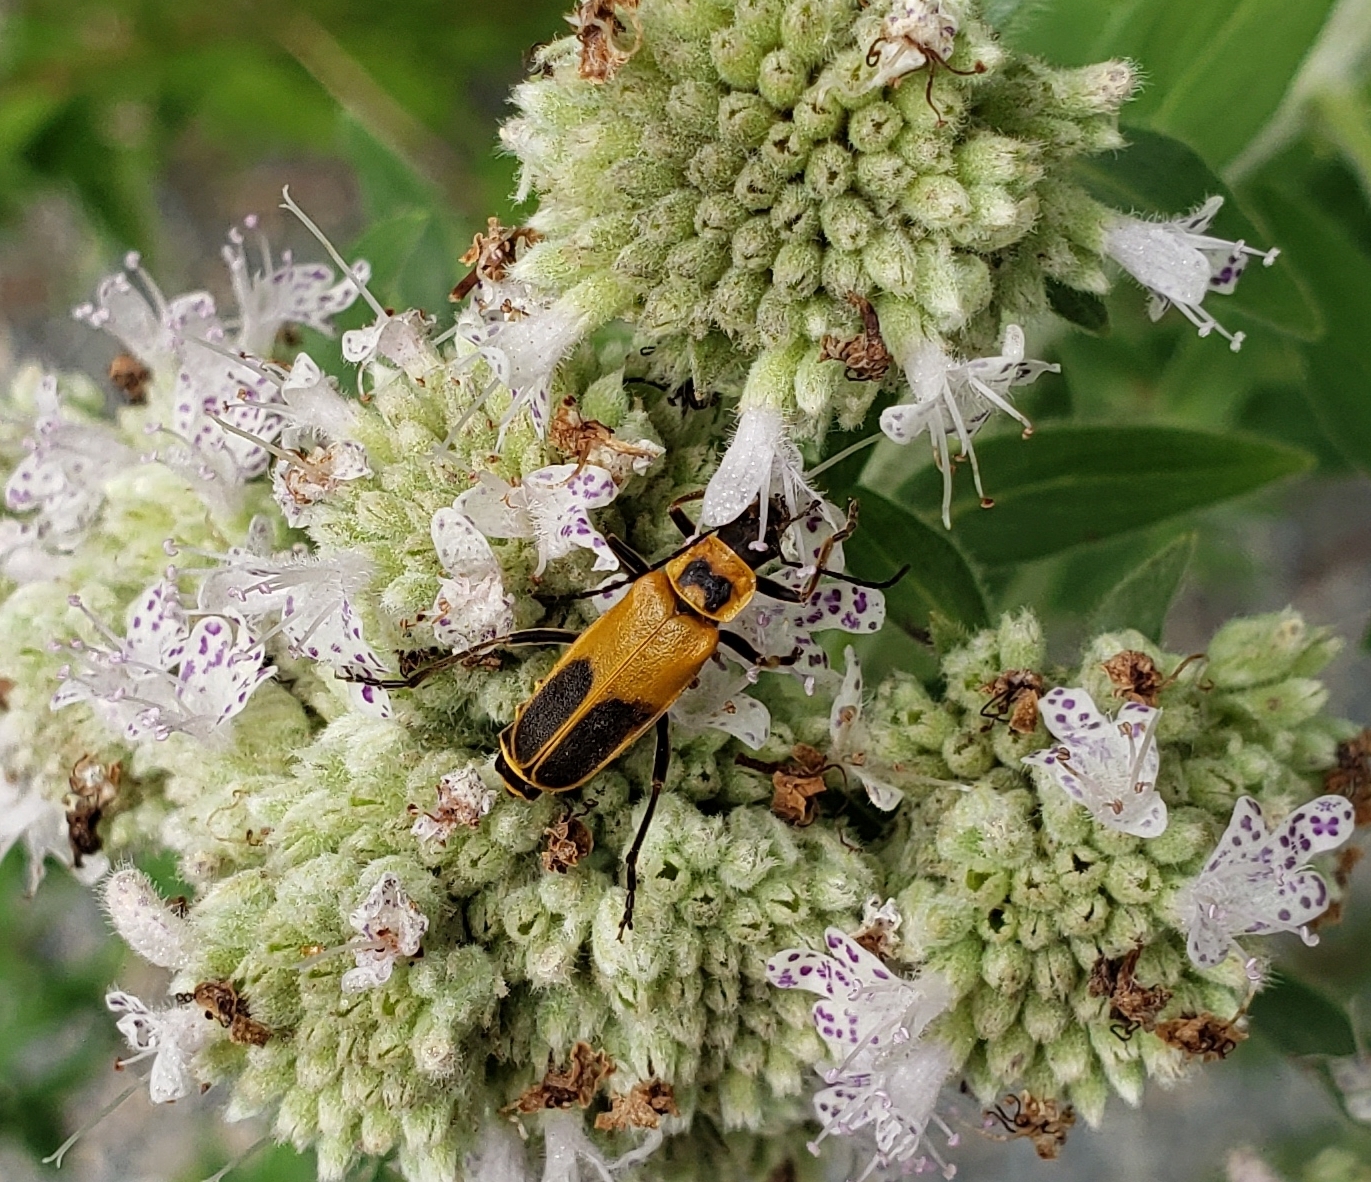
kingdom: Animalia
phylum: Arthropoda
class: Insecta
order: Coleoptera
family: Cantharidae
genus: Chauliognathus
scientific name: Chauliognathus pensylvanicus
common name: Goldenrod soldier beetle
